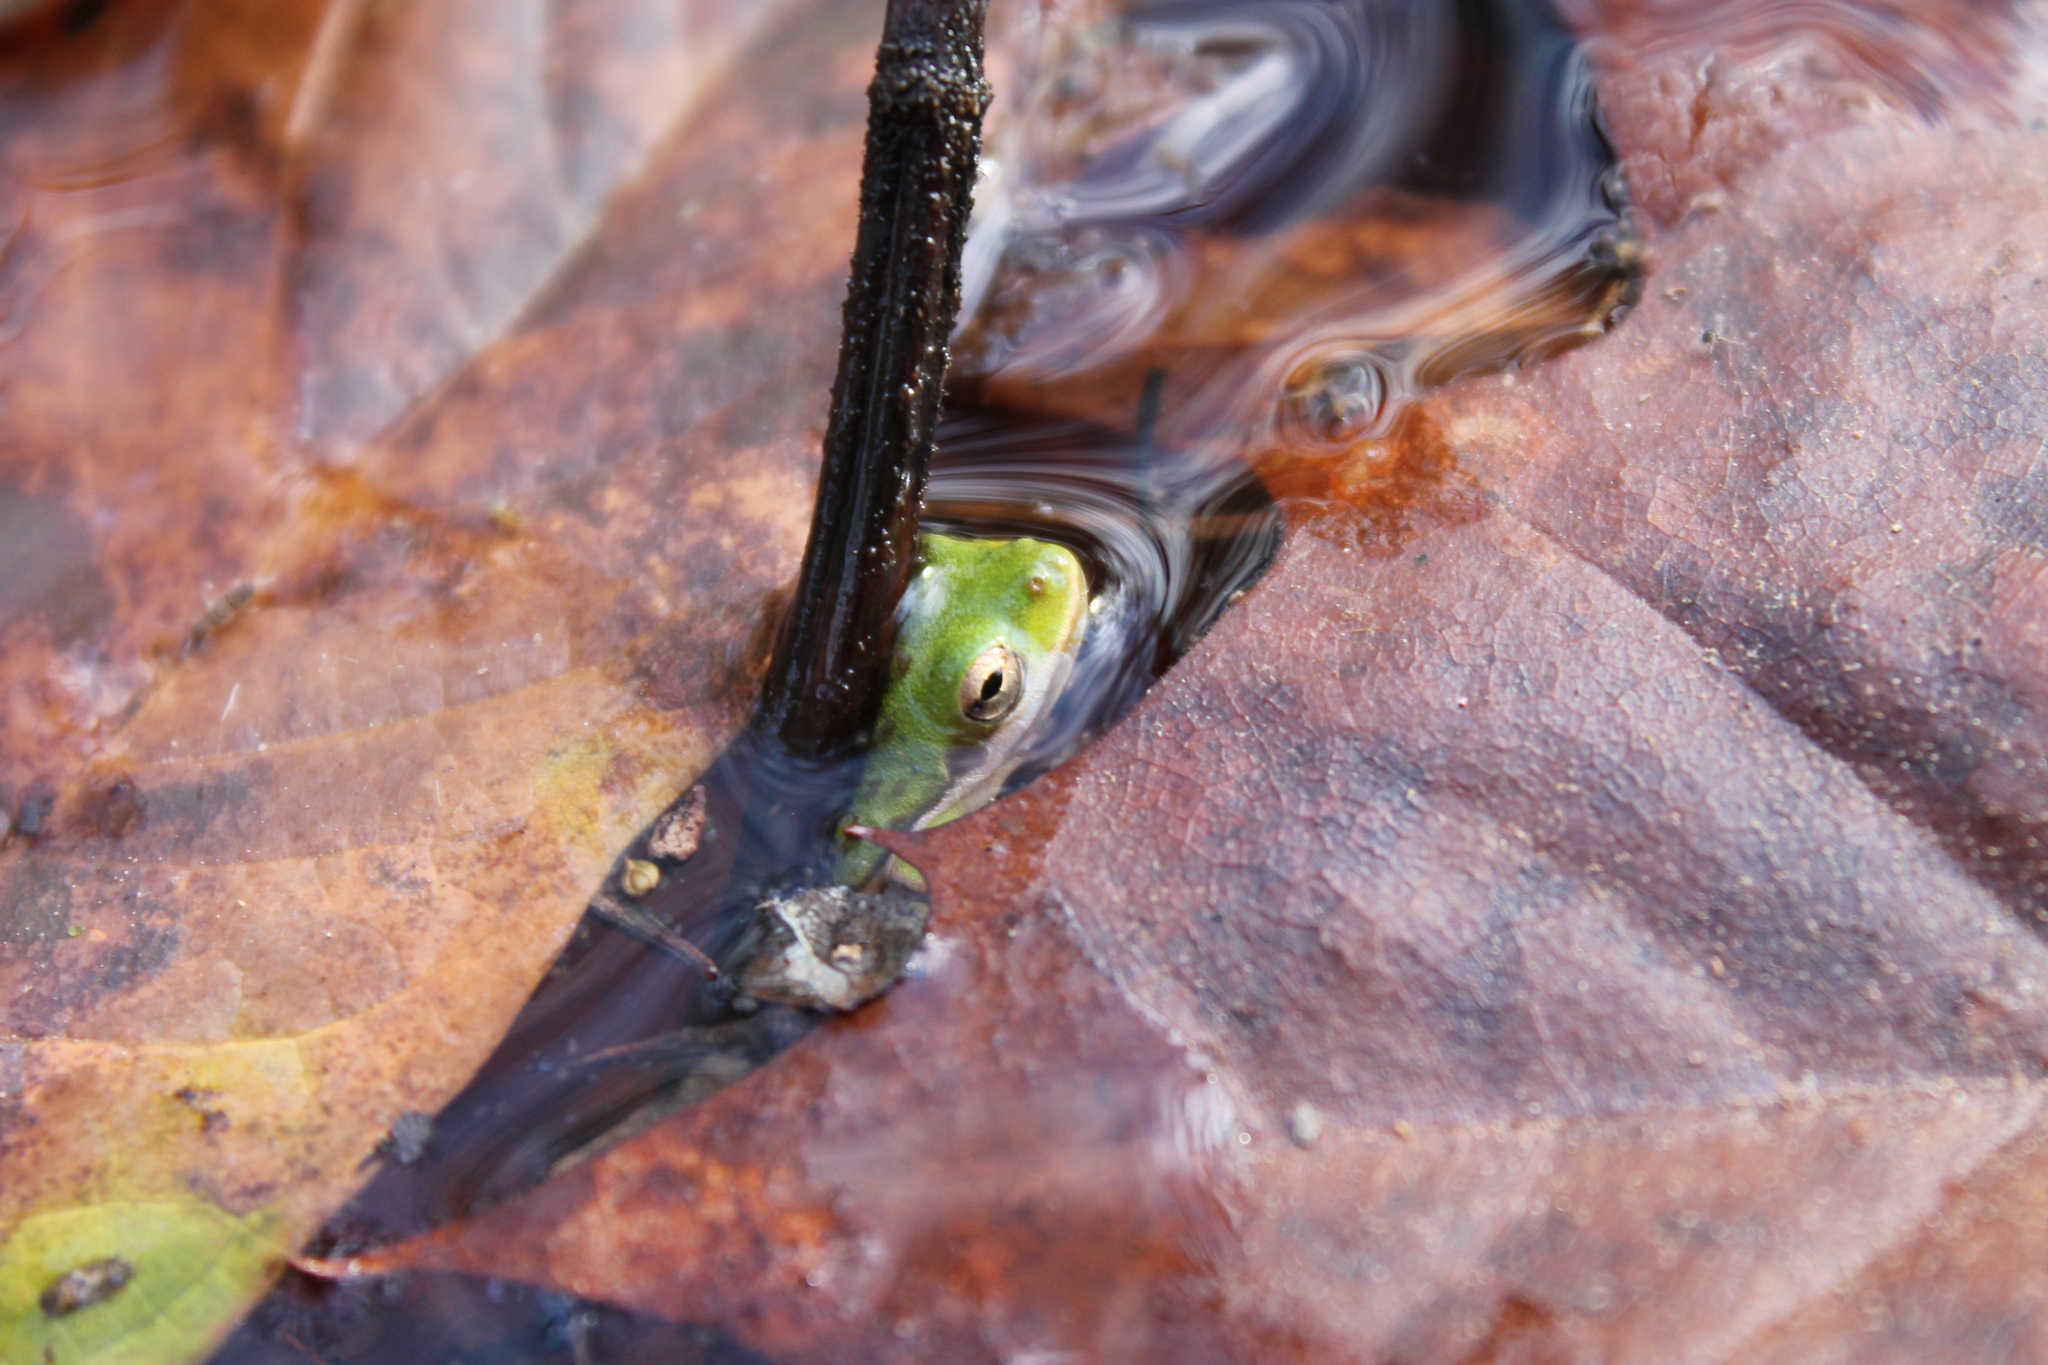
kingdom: Animalia
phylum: Chordata
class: Amphibia
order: Anura
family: Hylidae
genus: Dryophytes
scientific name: Dryophytes cinereus
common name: Green treefrog
